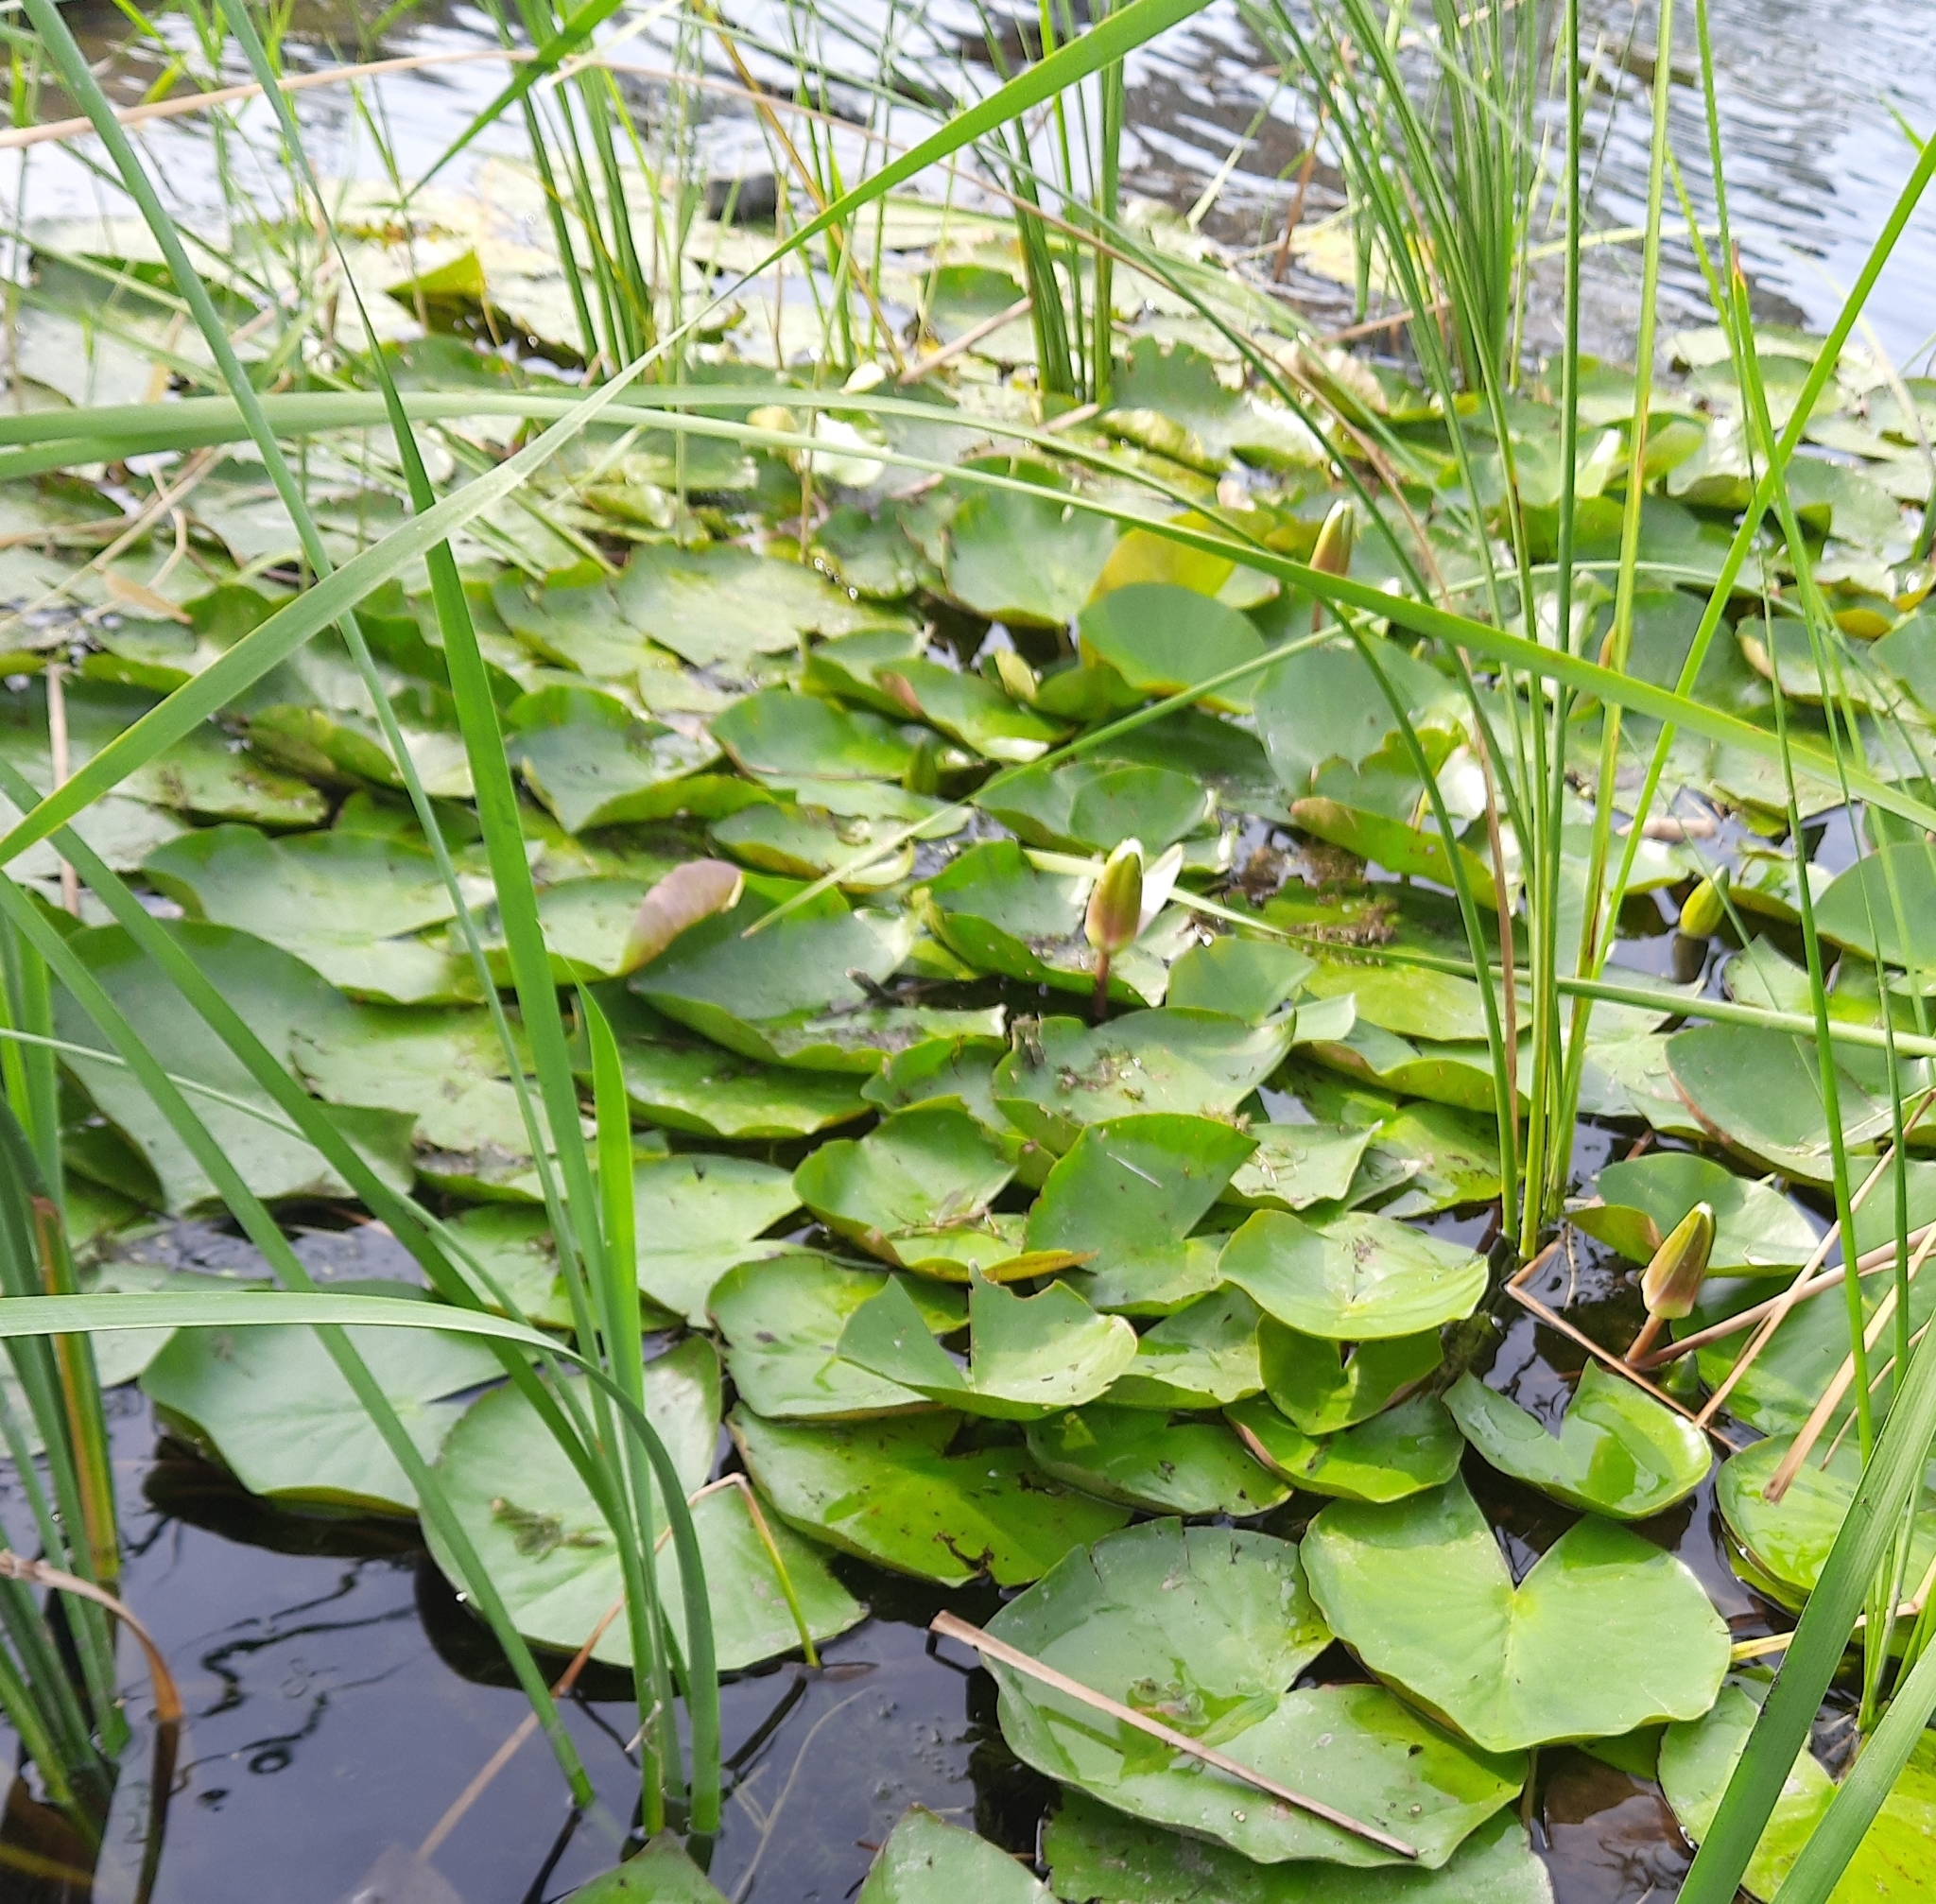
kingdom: Plantae
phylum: Tracheophyta
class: Magnoliopsida
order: Nymphaeales
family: Nymphaeaceae
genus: Nymphaea
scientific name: Nymphaea alba
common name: White water-lily
